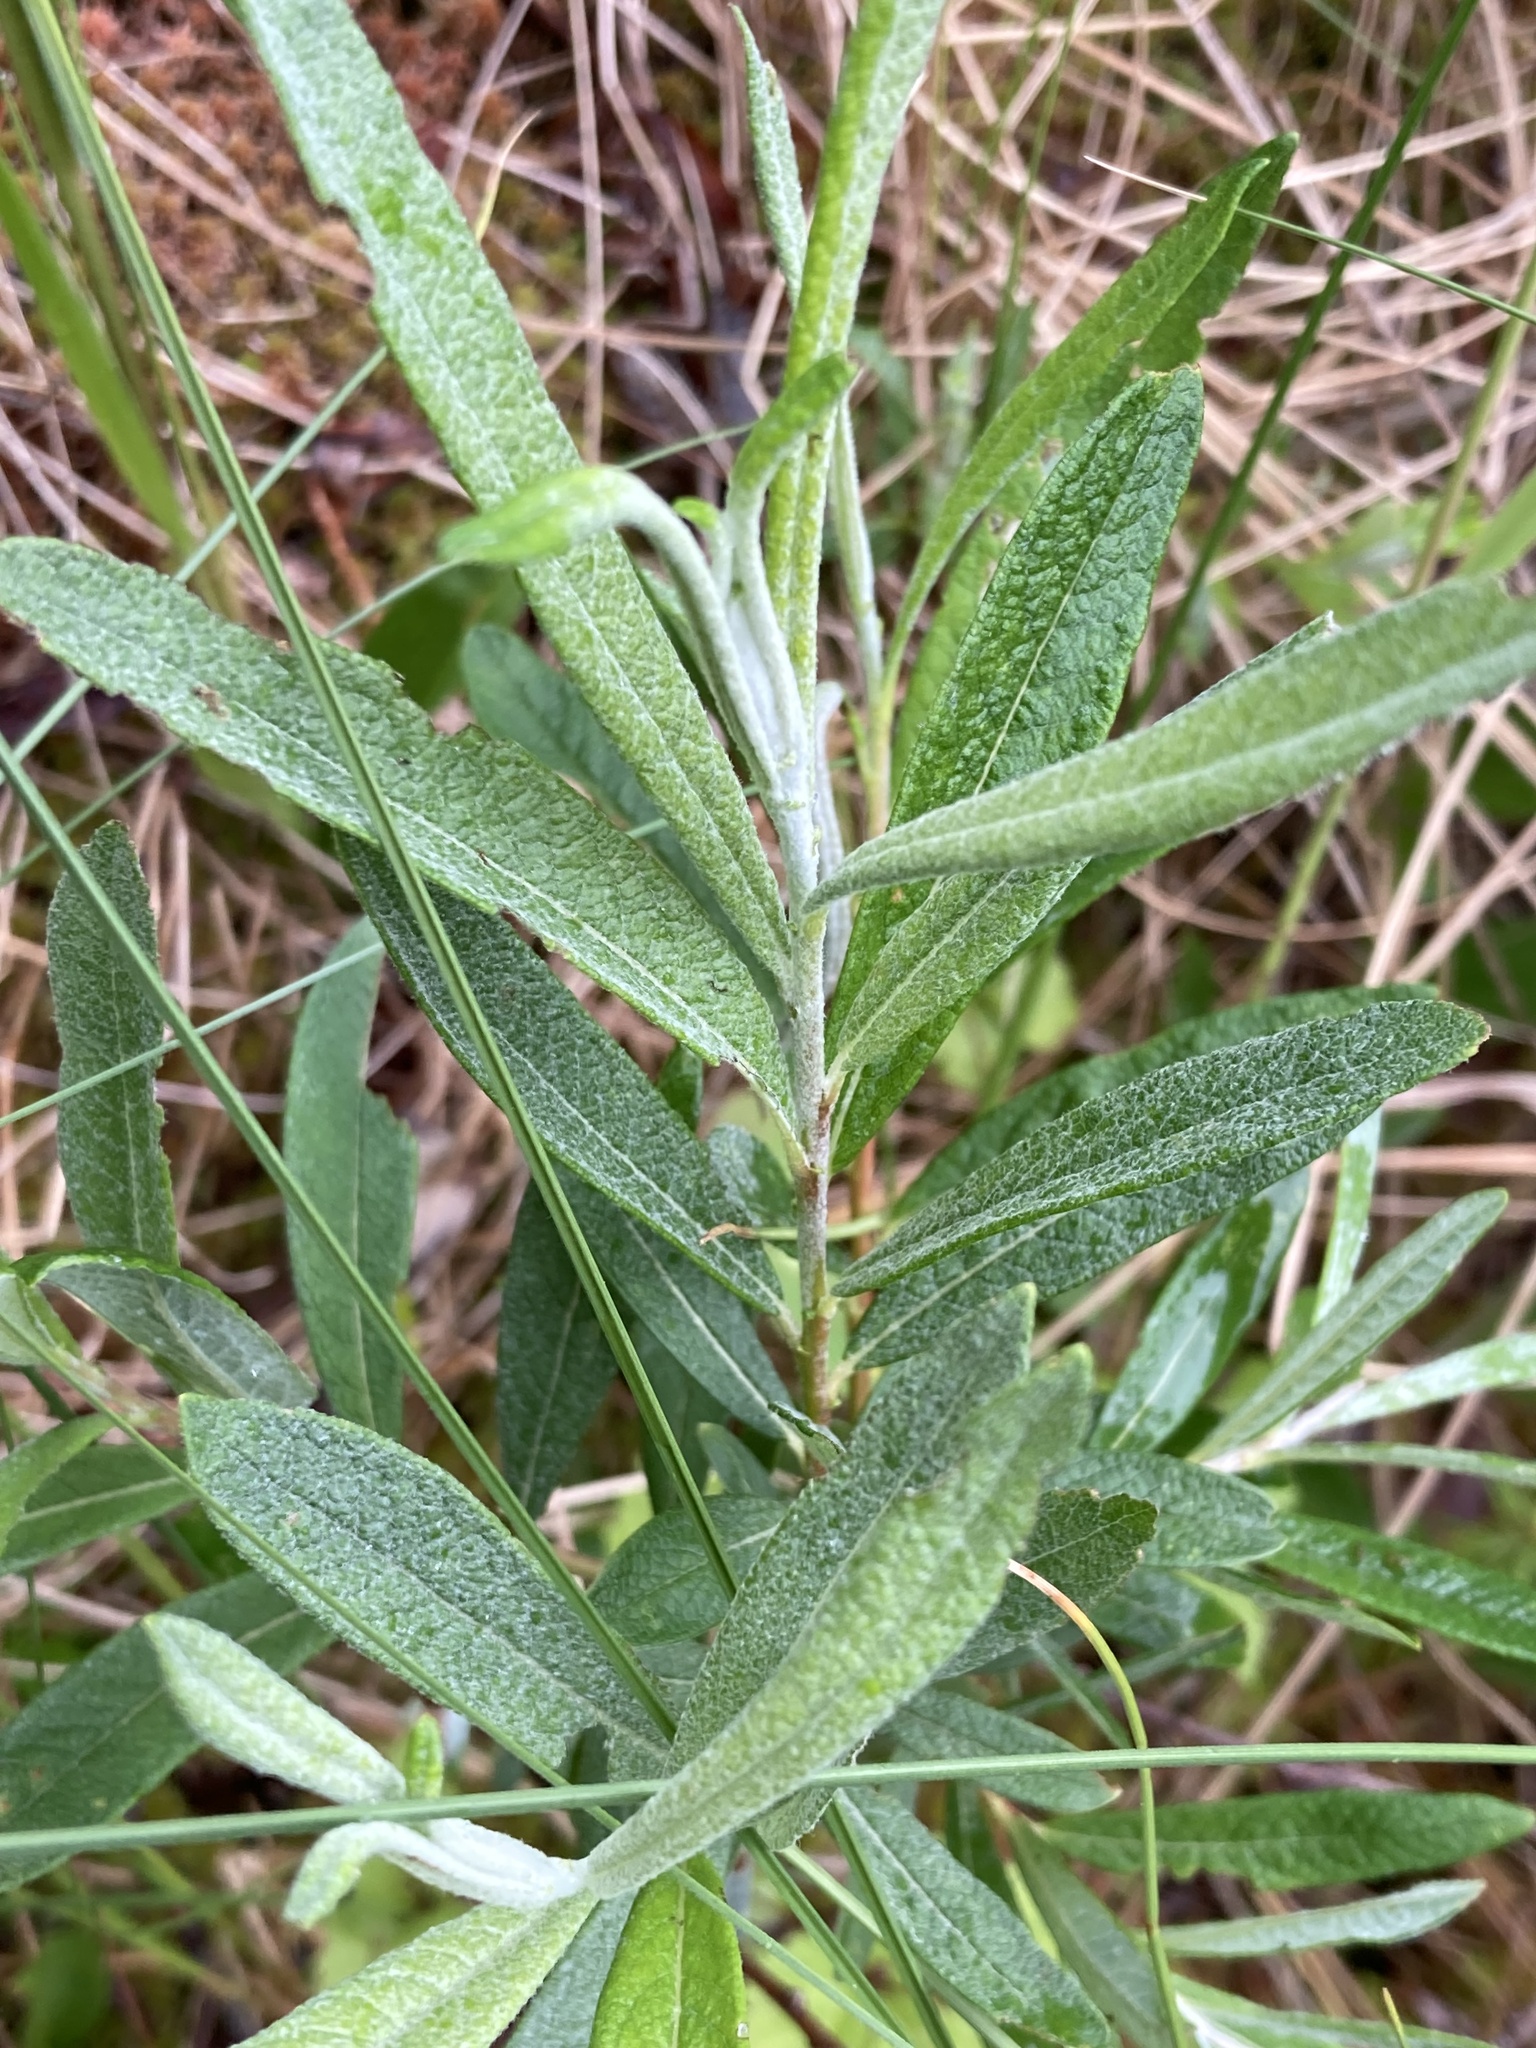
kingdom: Plantae
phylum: Tracheophyta
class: Magnoliopsida
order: Malpighiales
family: Salicaceae
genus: Salix
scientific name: Salix candida
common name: Hoary willow
